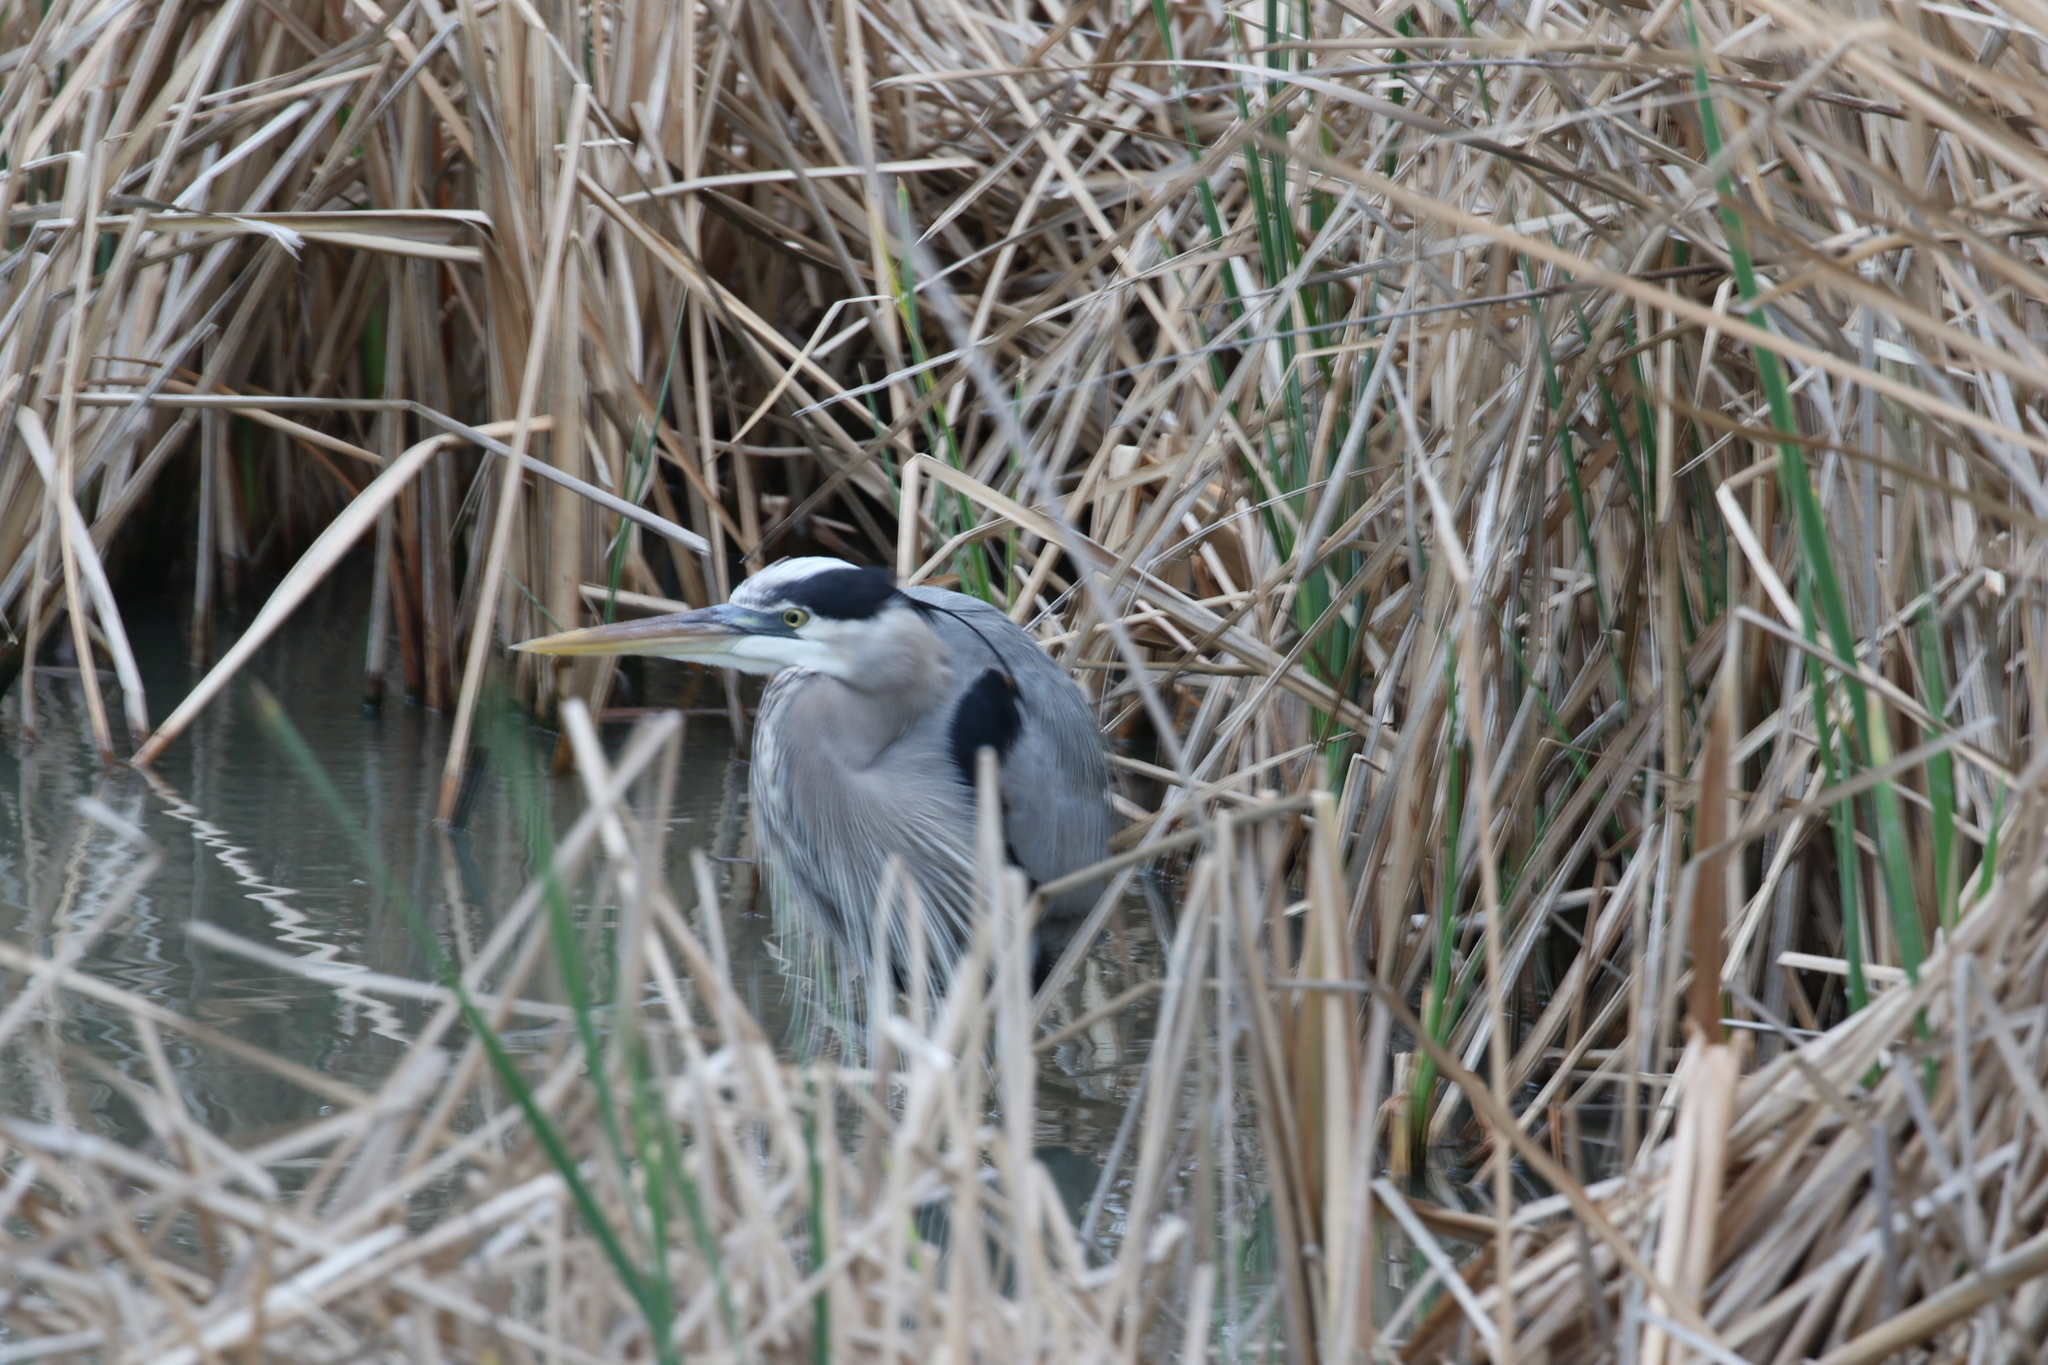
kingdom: Animalia
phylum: Chordata
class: Aves
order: Pelecaniformes
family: Ardeidae
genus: Ardea
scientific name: Ardea herodias
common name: Great blue heron
